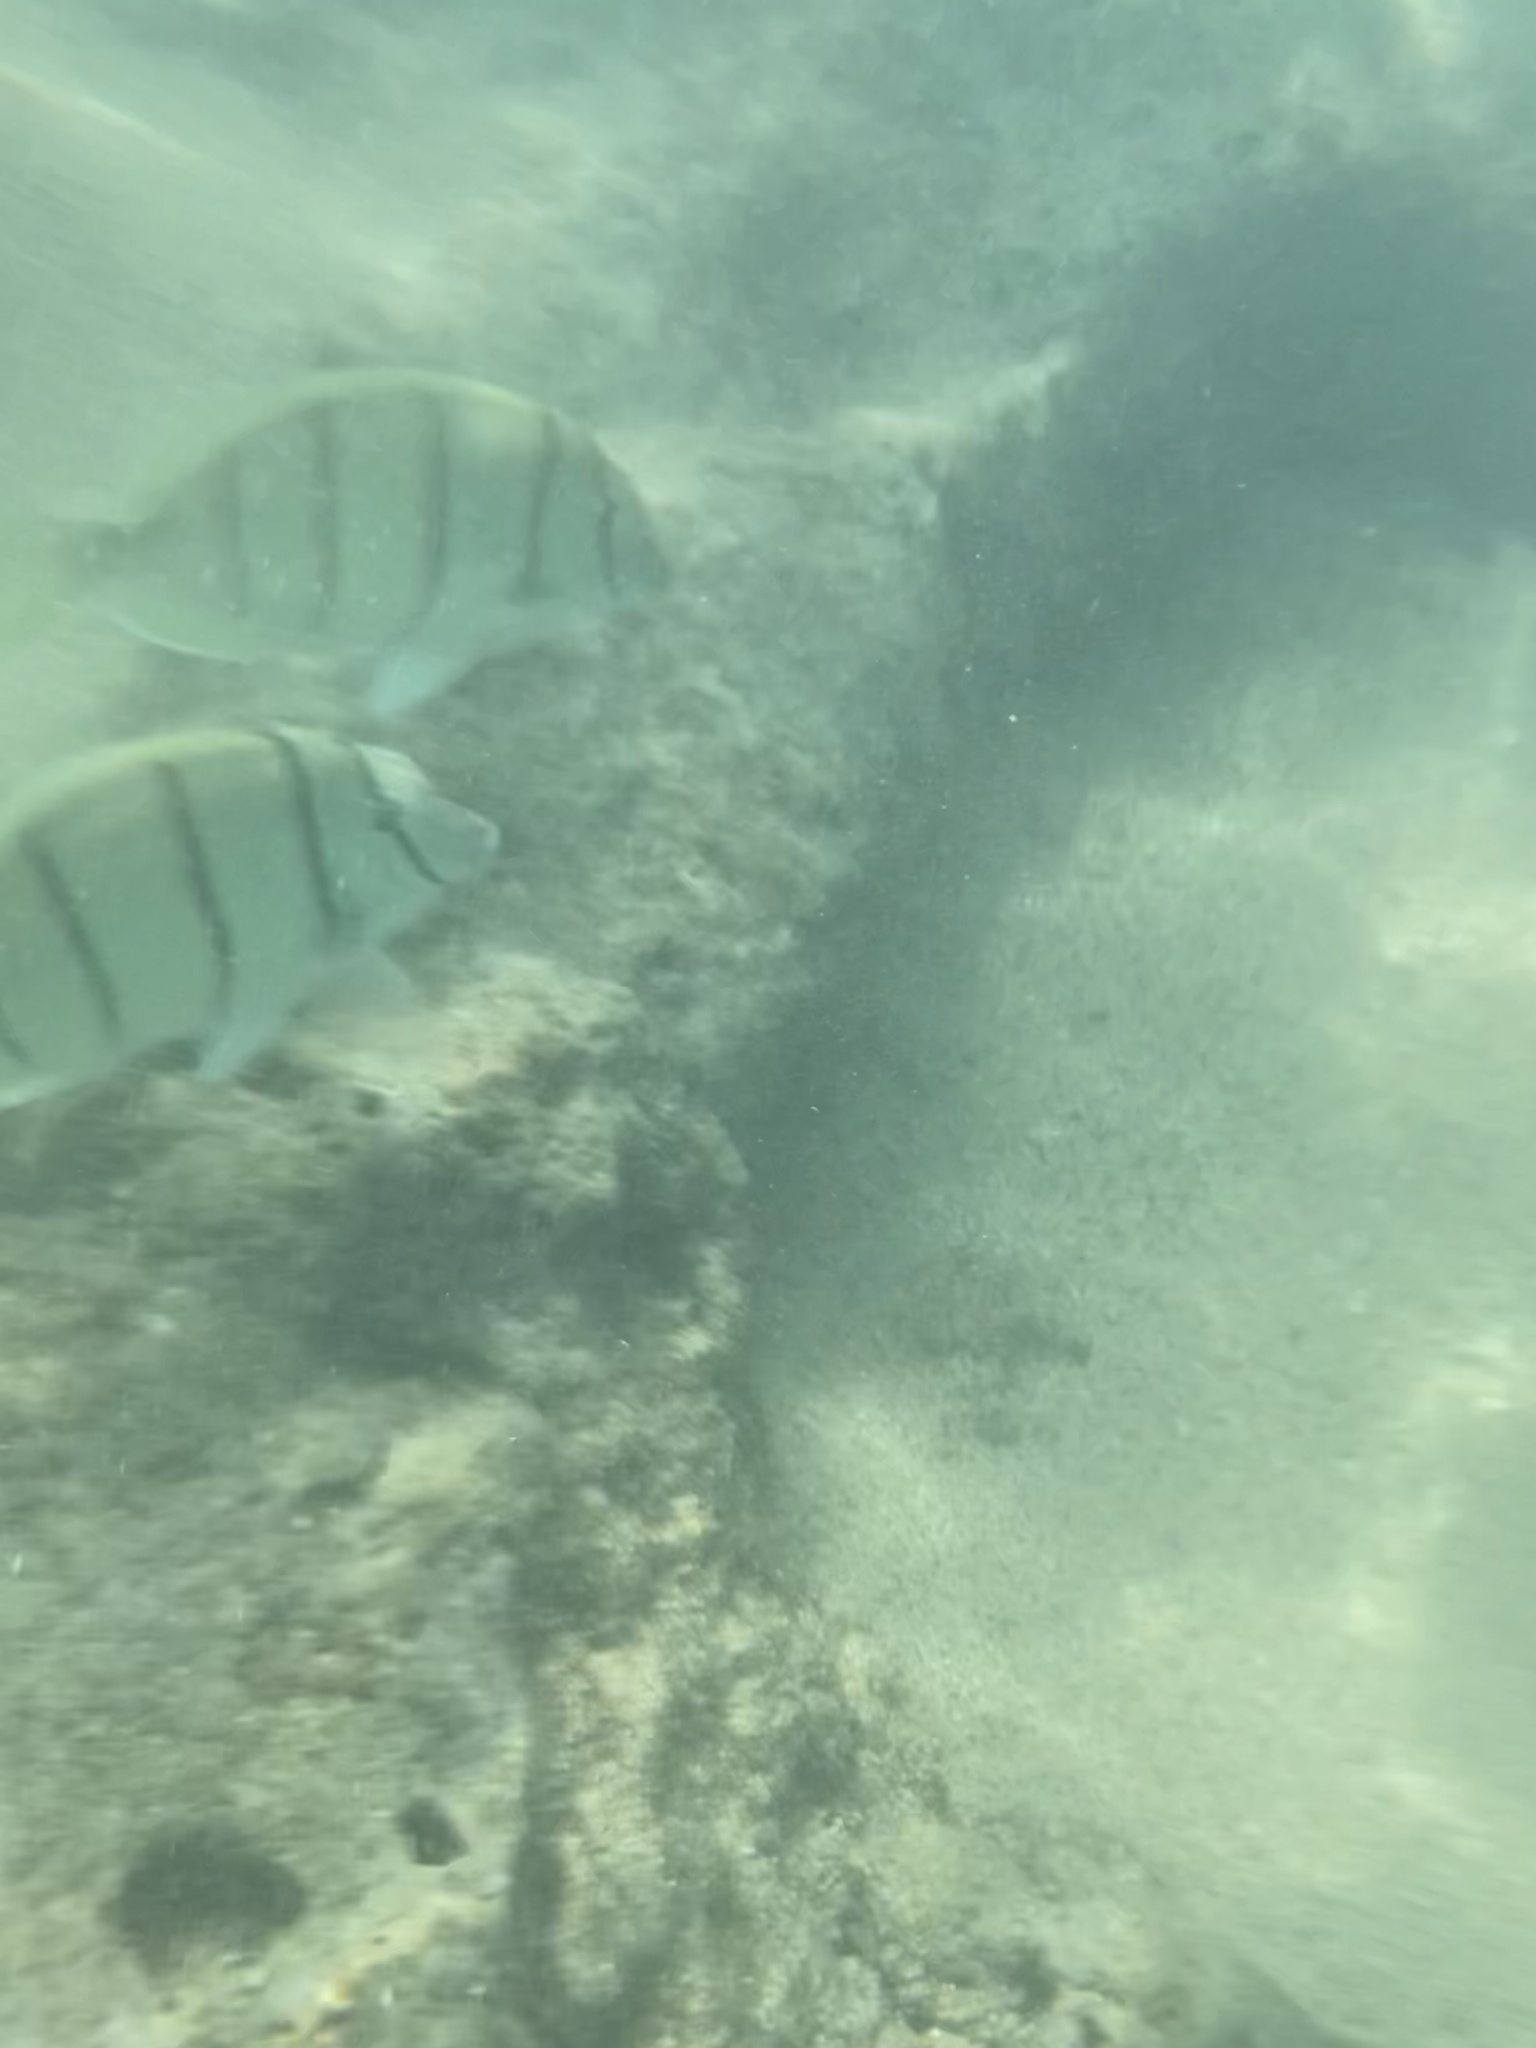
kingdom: Animalia
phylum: Chordata
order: Perciformes
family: Acanthuridae
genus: Acanthurus
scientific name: Acanthurus triostegus
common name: Convict surgeonfish
